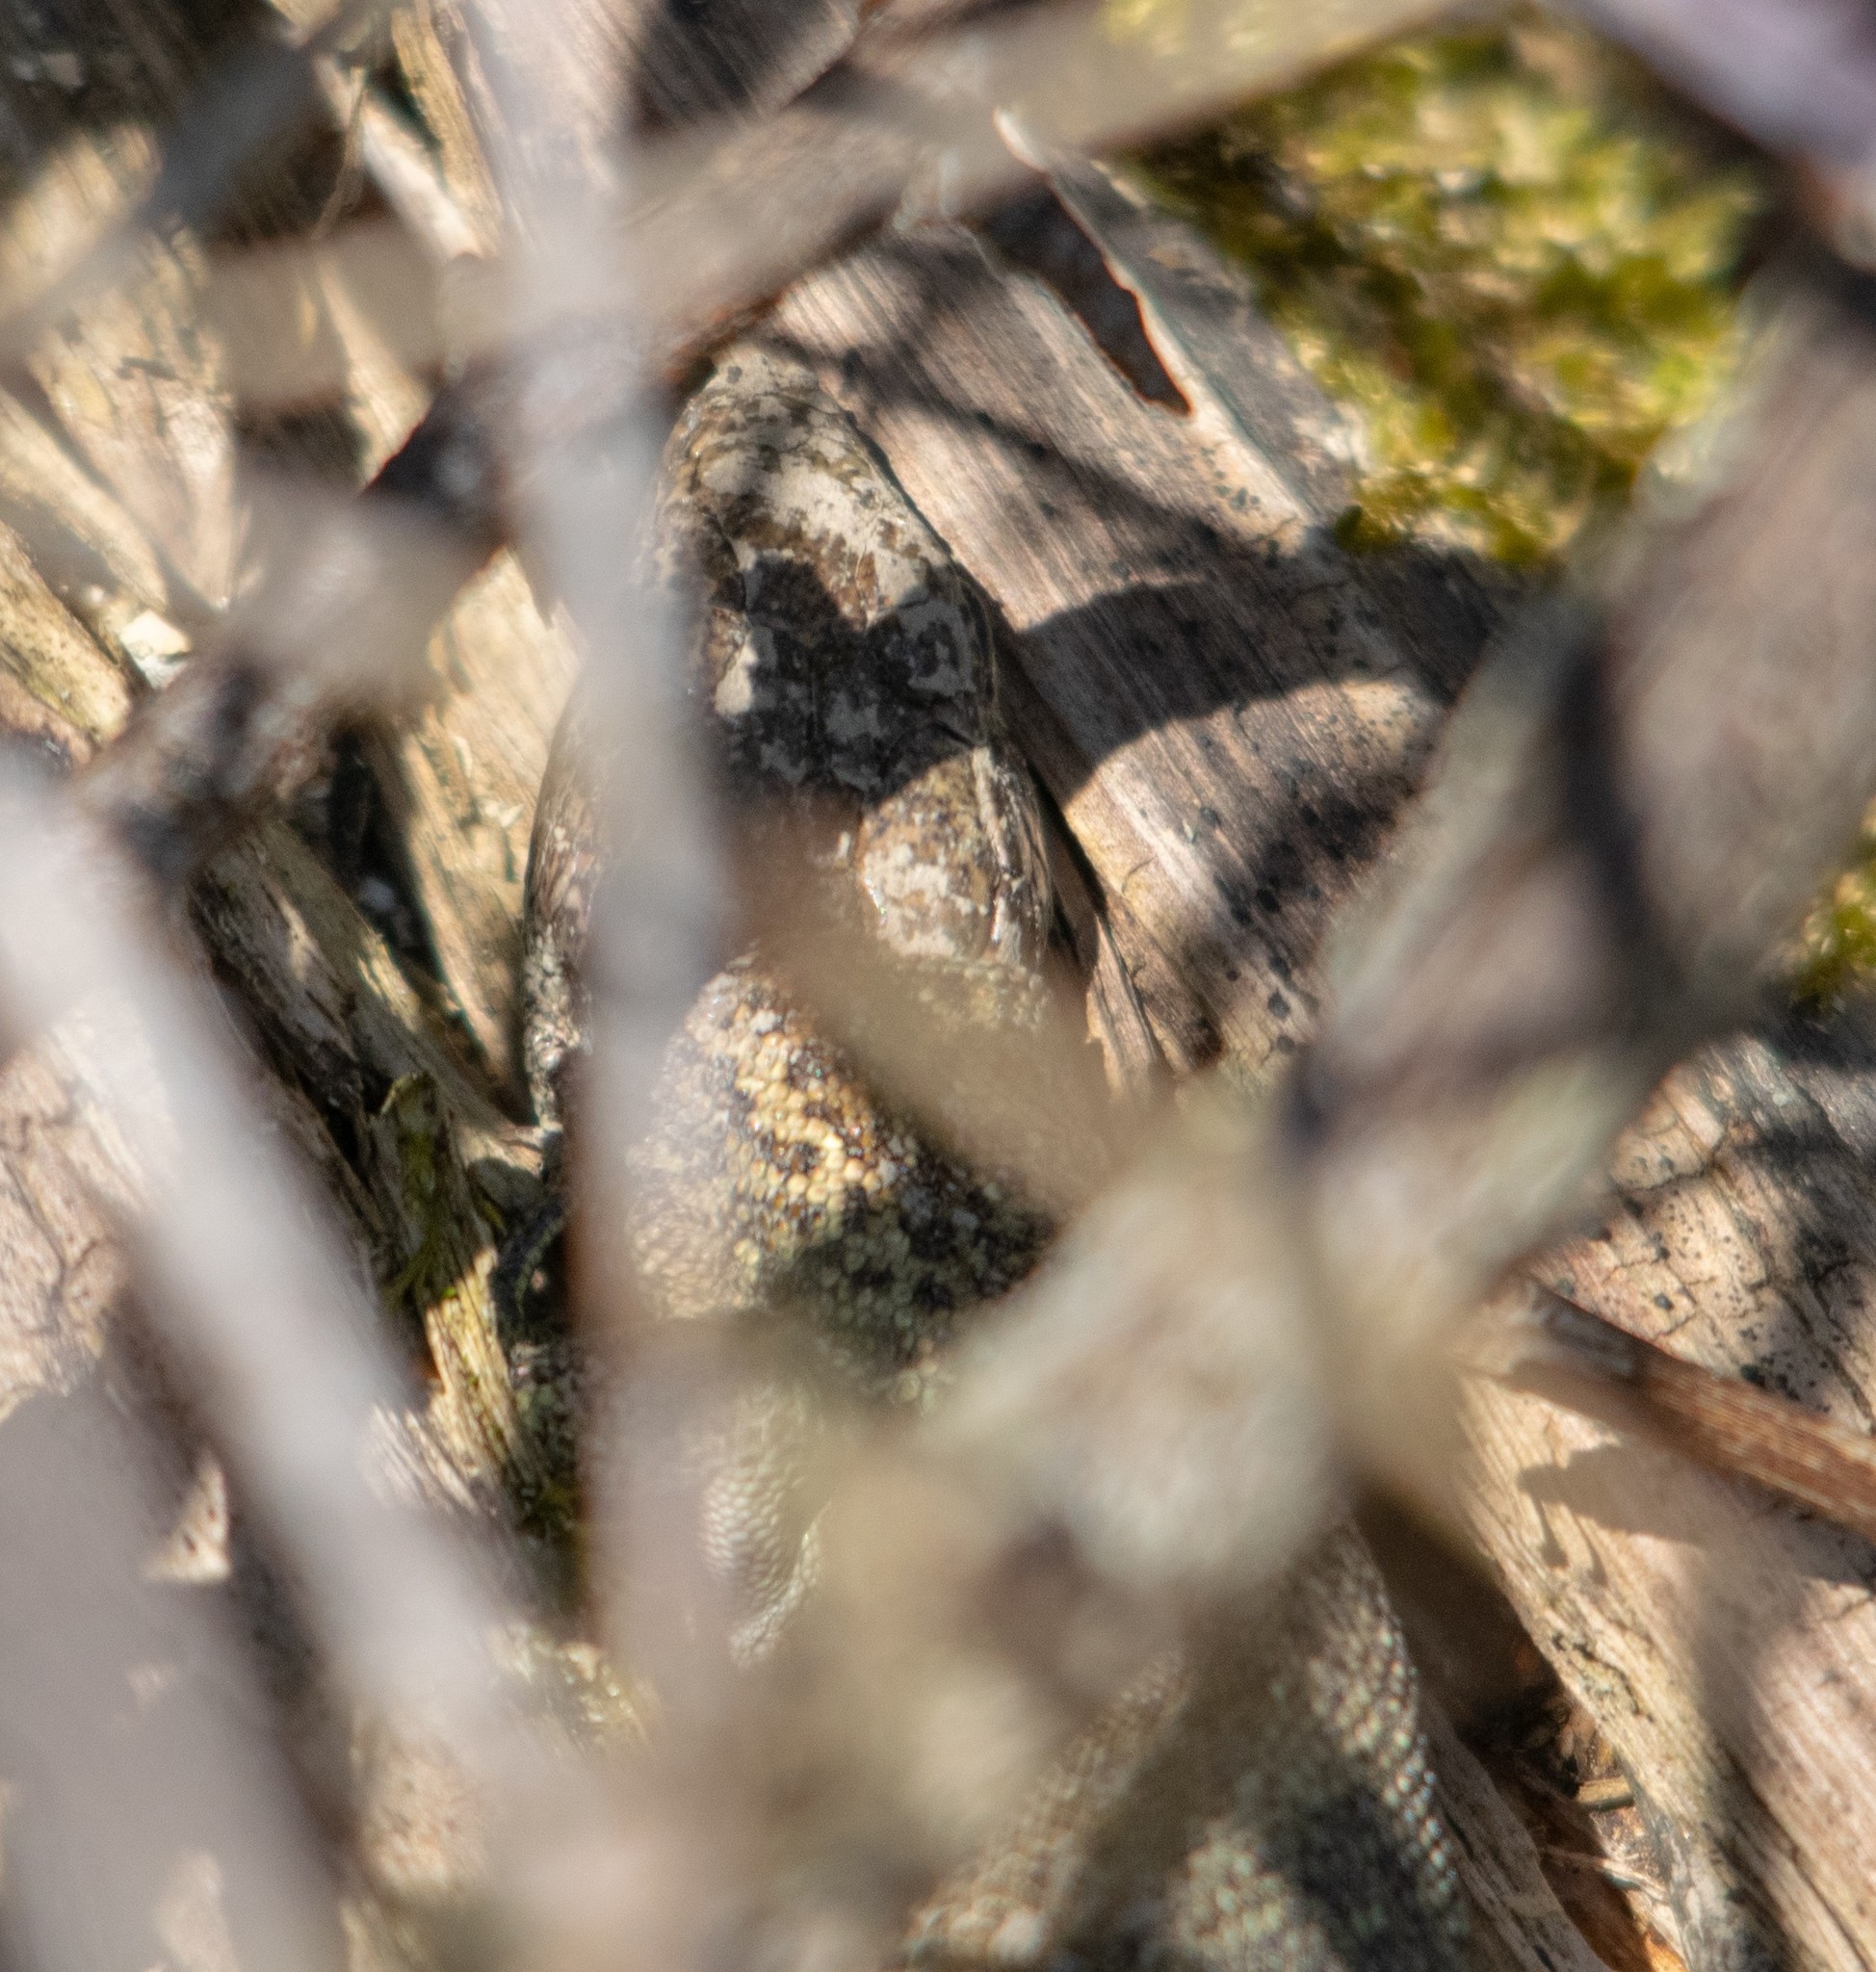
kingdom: Animalia
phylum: Chordata
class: Squamata
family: Lacertidae
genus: Lacerta
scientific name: Lacerta agilis
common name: Sand lizard
